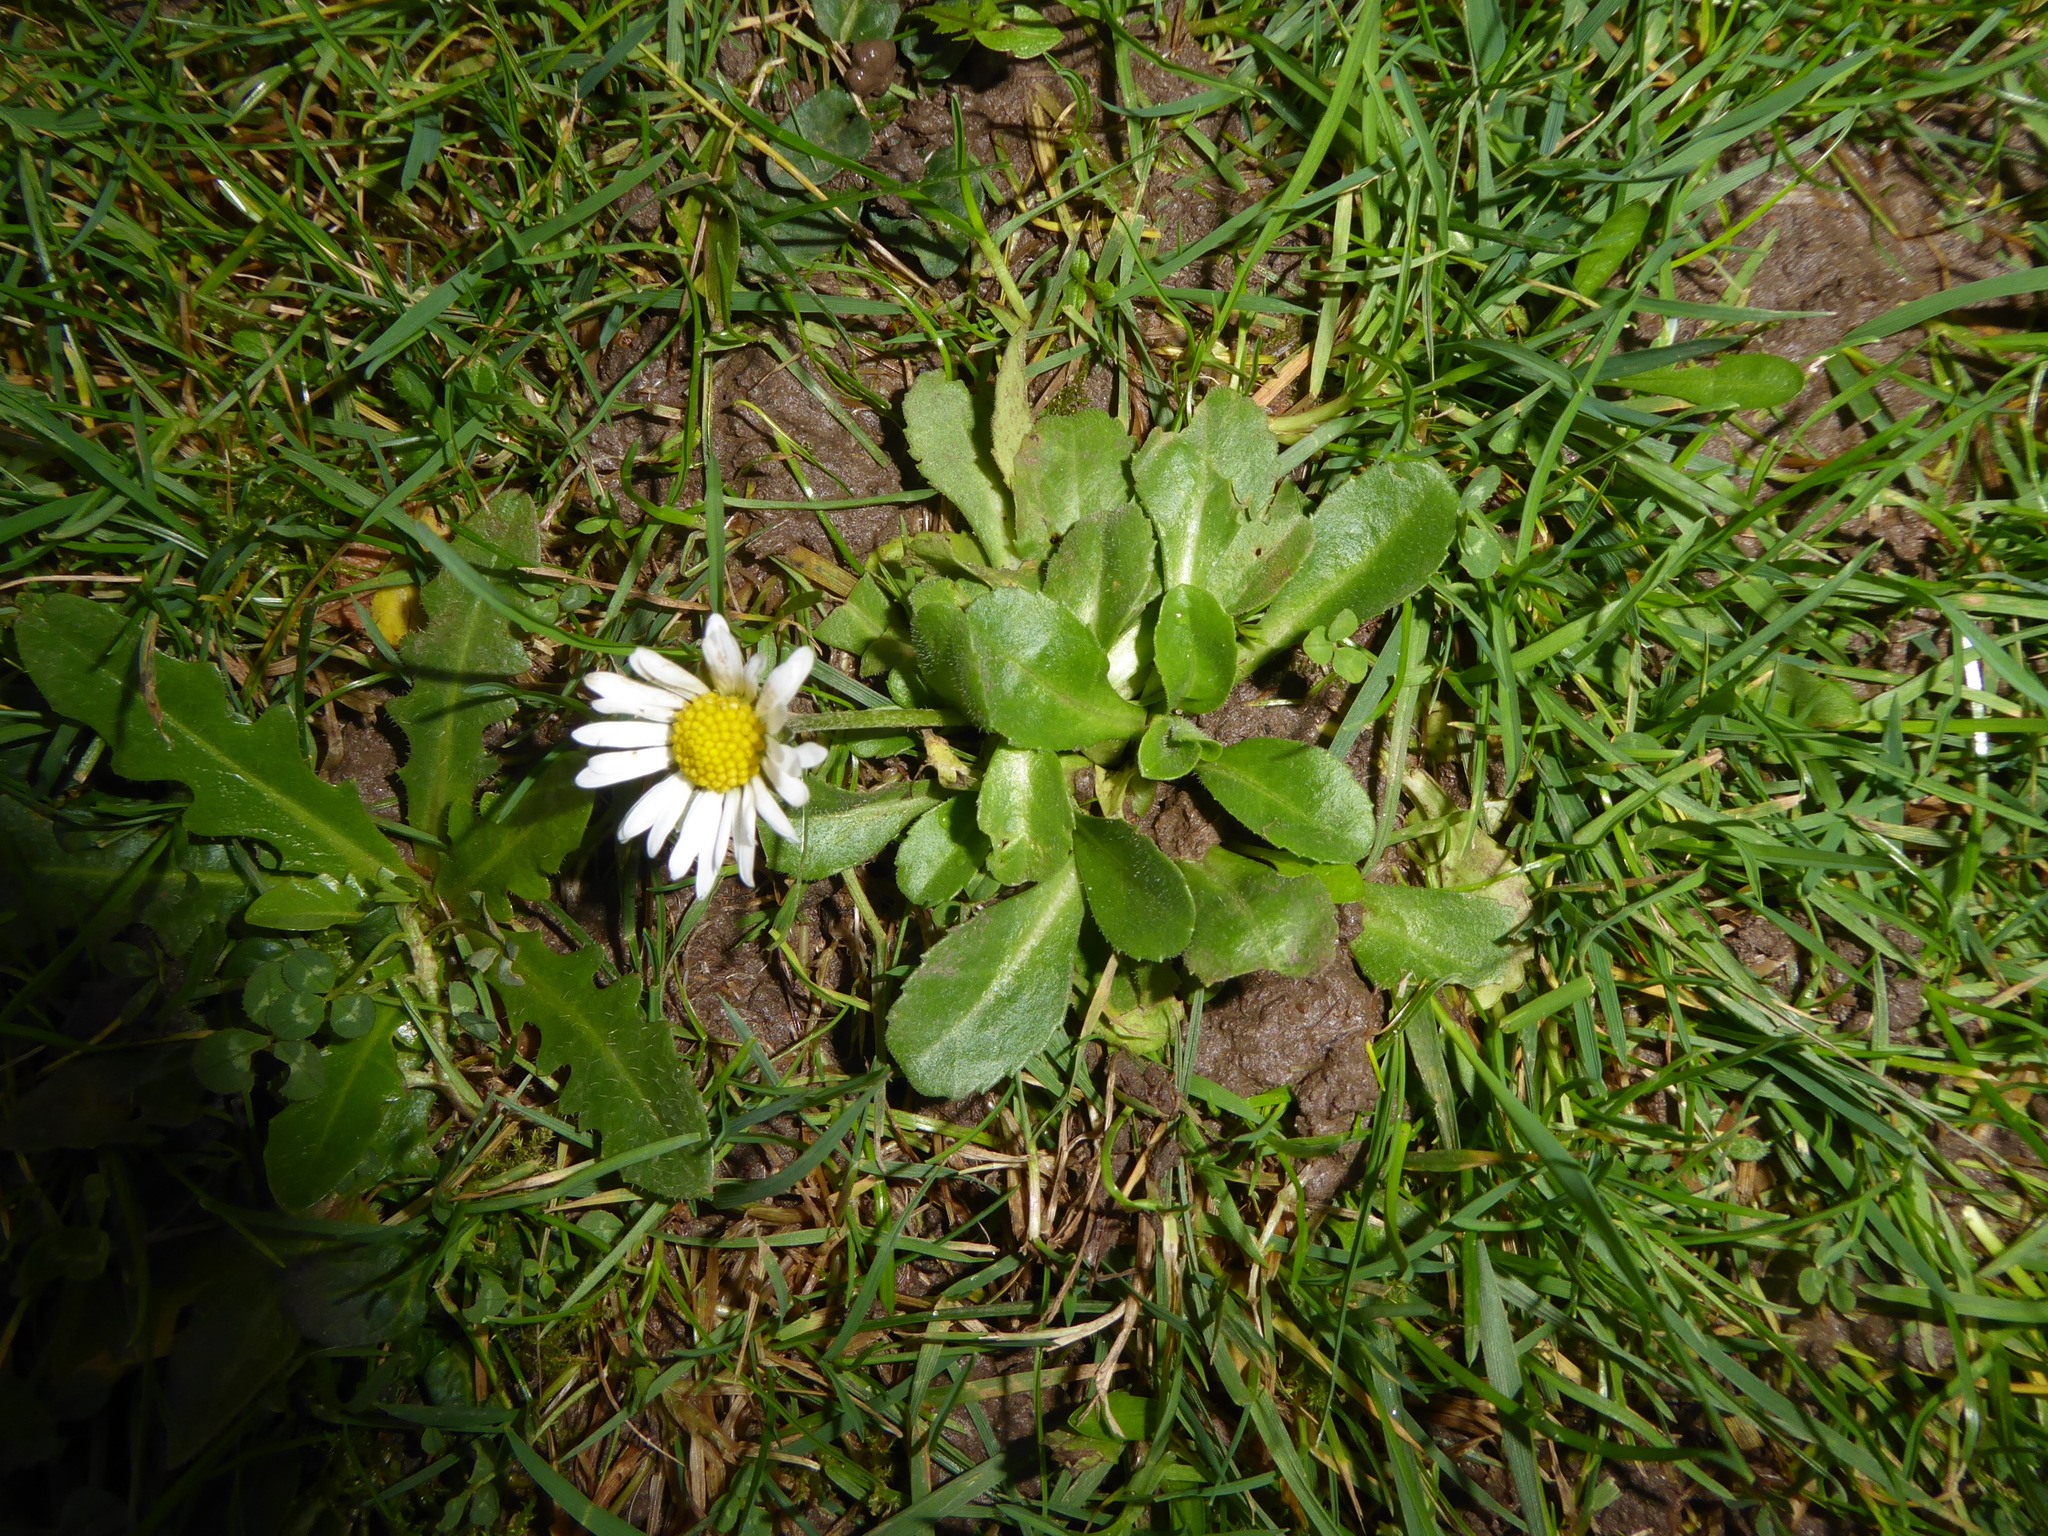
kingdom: Plantae
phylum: Tracheophyta
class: Magnoliopsida
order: Asterales
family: Asteraceae
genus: Bellis
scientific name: Bellis perennis
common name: Lawndaisy
